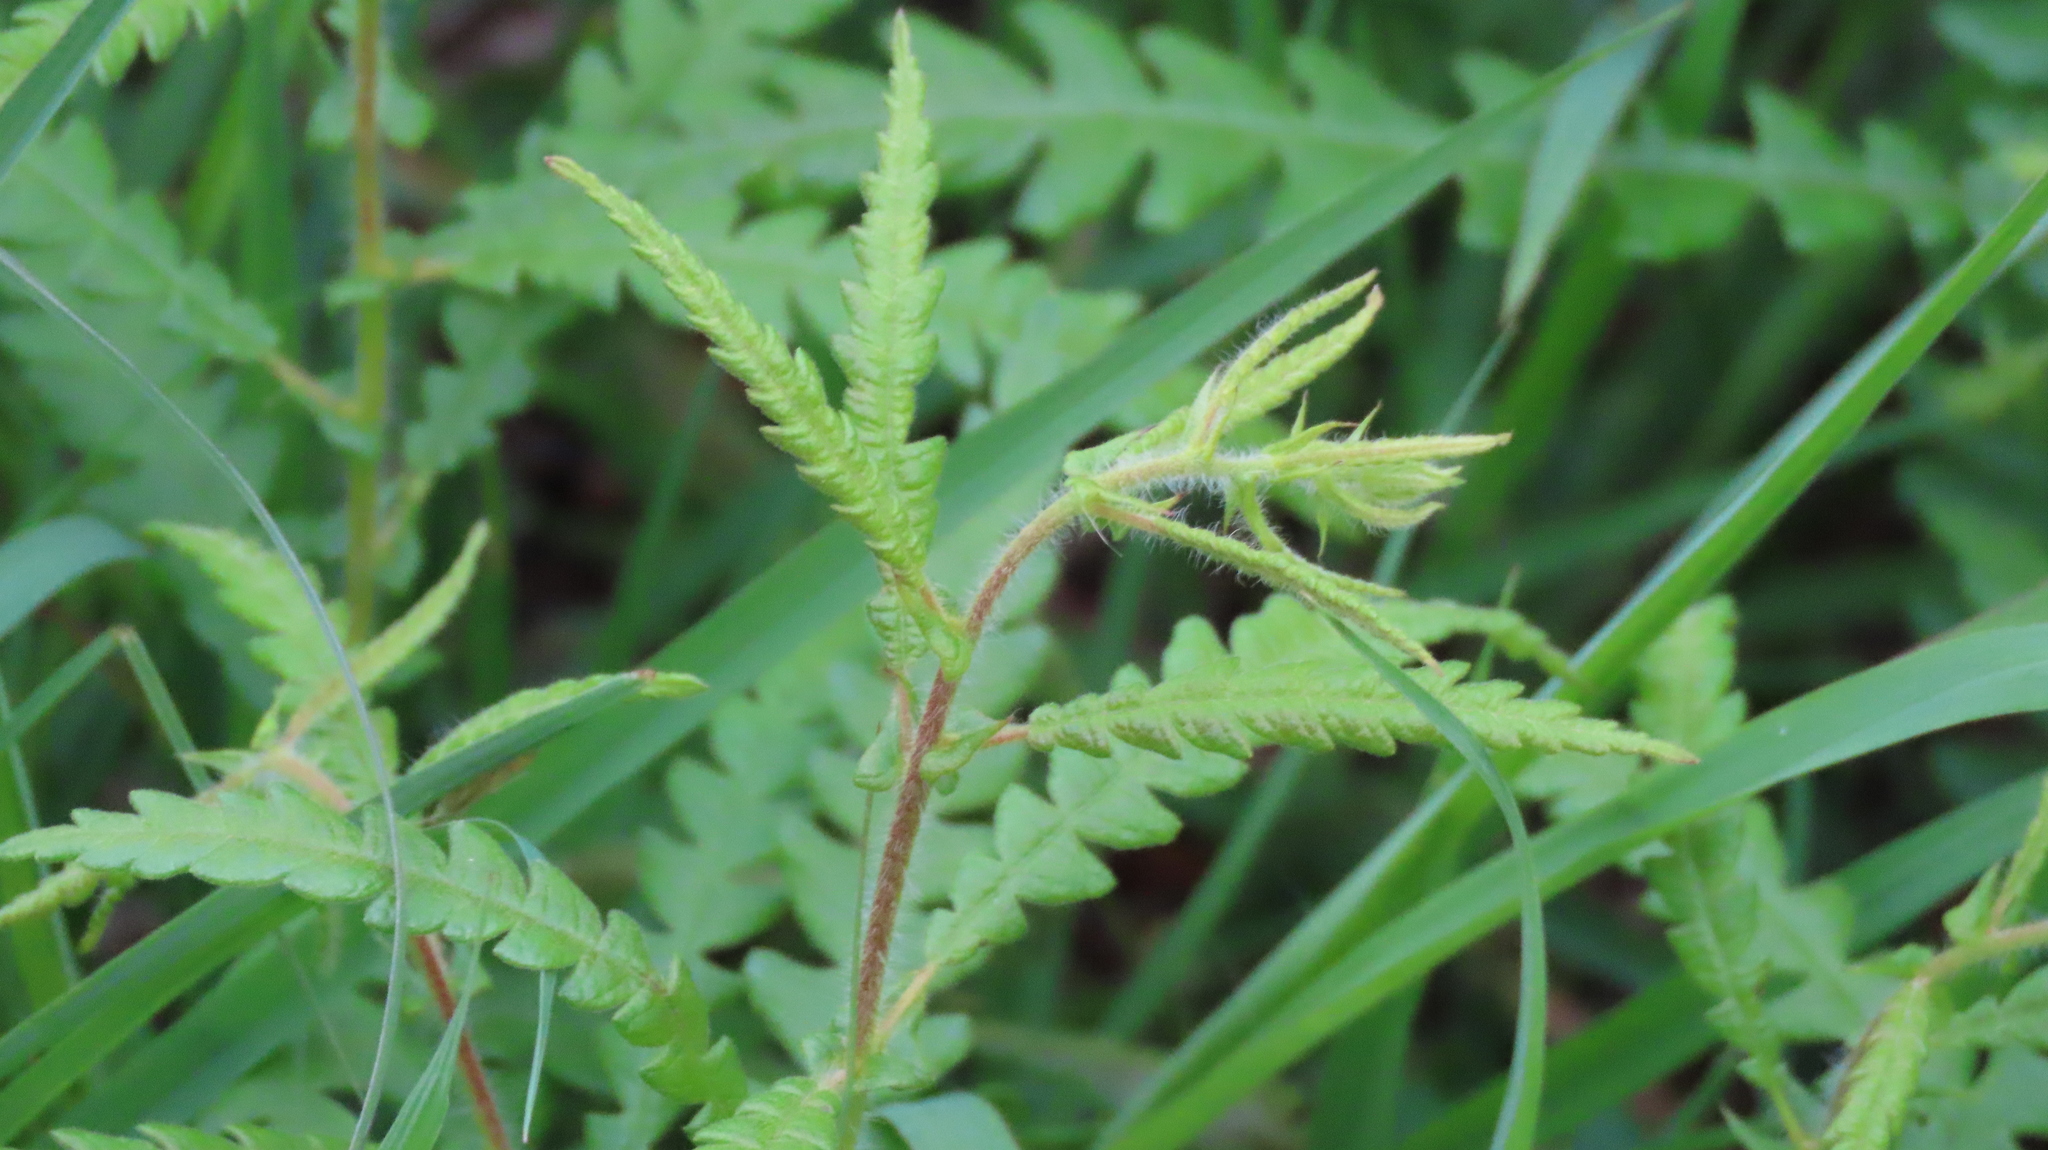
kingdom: Plantae
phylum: Tracheophyta
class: Magnoliopsida
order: Fagales
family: Myricaceae
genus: Comptonia
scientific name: Comptonia peregrina
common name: Sweet-fern
